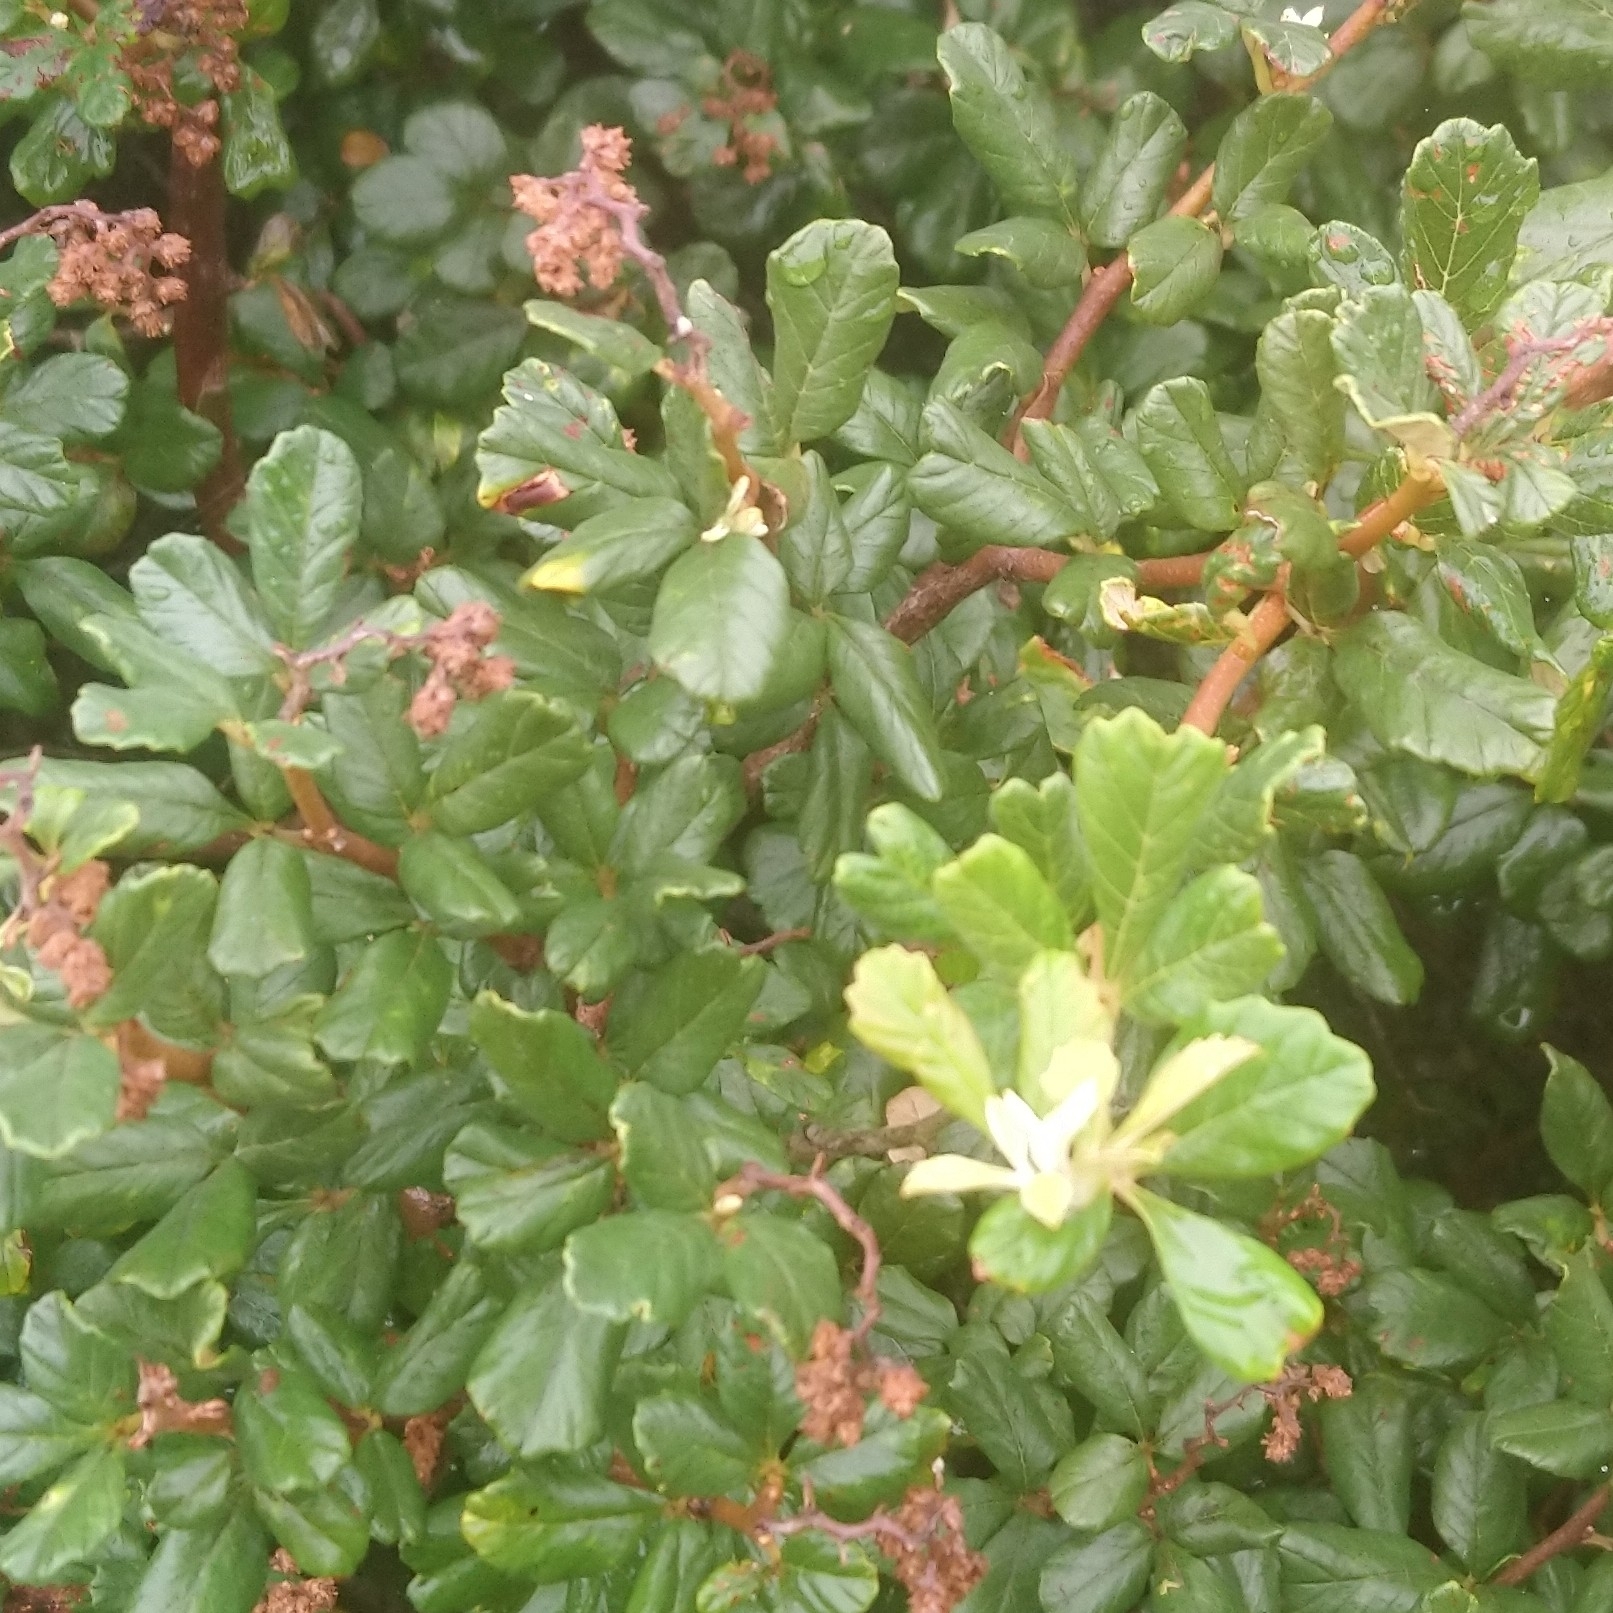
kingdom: Plantae
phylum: Tracheophyta
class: Magnoliopsida
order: Sapindales
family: Anacardiaceae
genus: Searsia
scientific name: Searsia incisa
